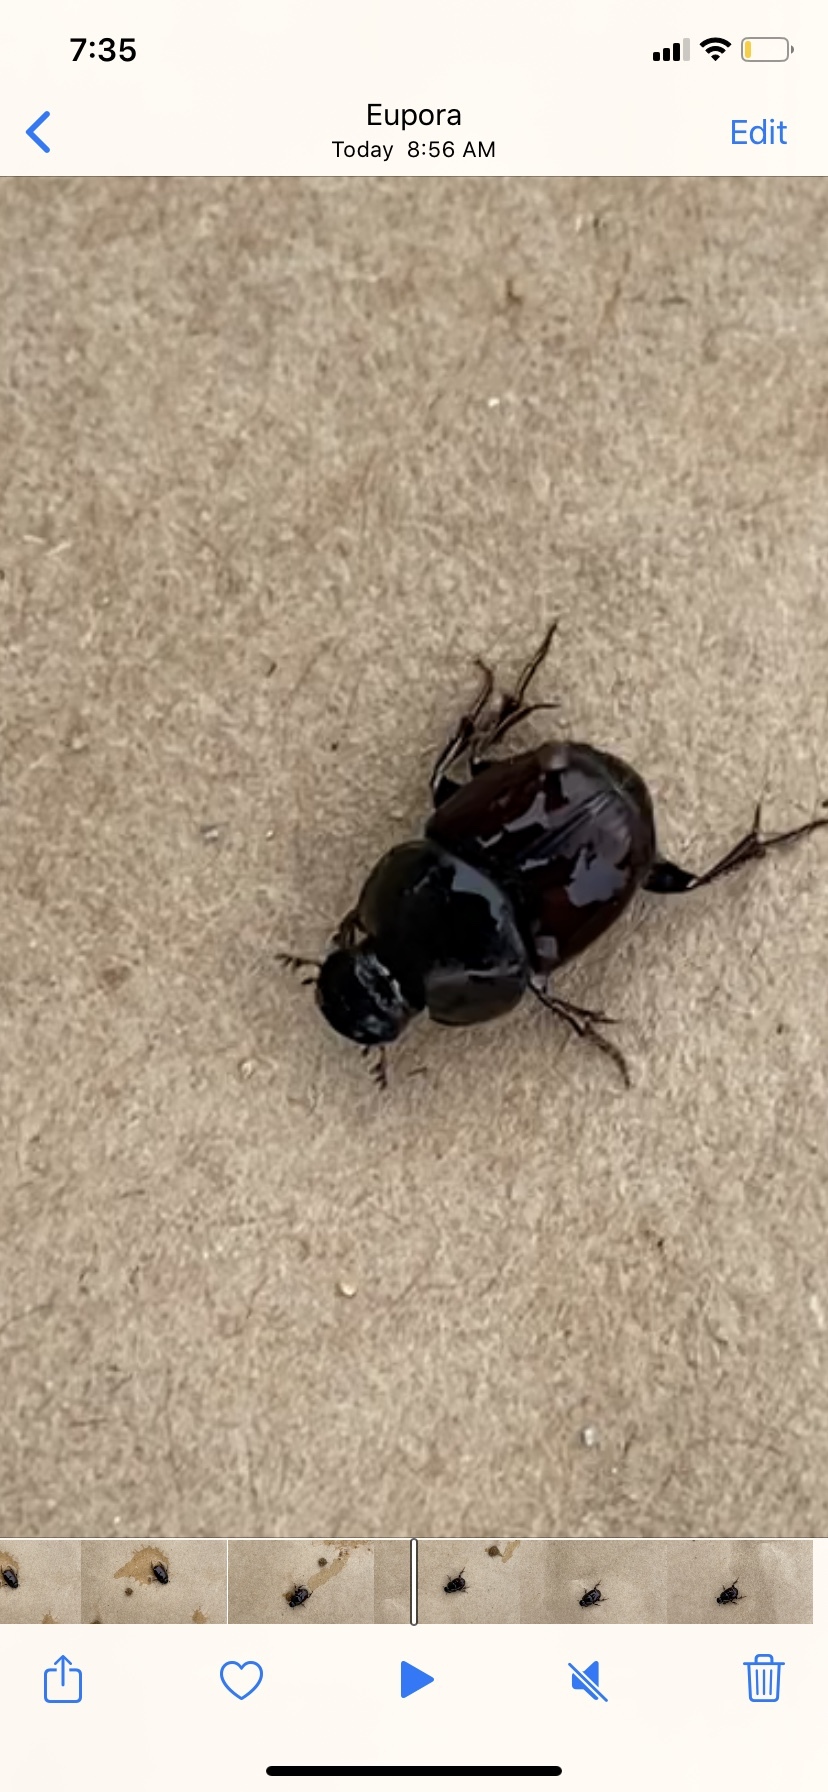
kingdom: Animalia
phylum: Arthropoda
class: Insecta
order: Coleoptera
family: Scarabaeidae
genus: Onthophagus
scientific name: Onthophagus taurus
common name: Bullhorned dung beetle
